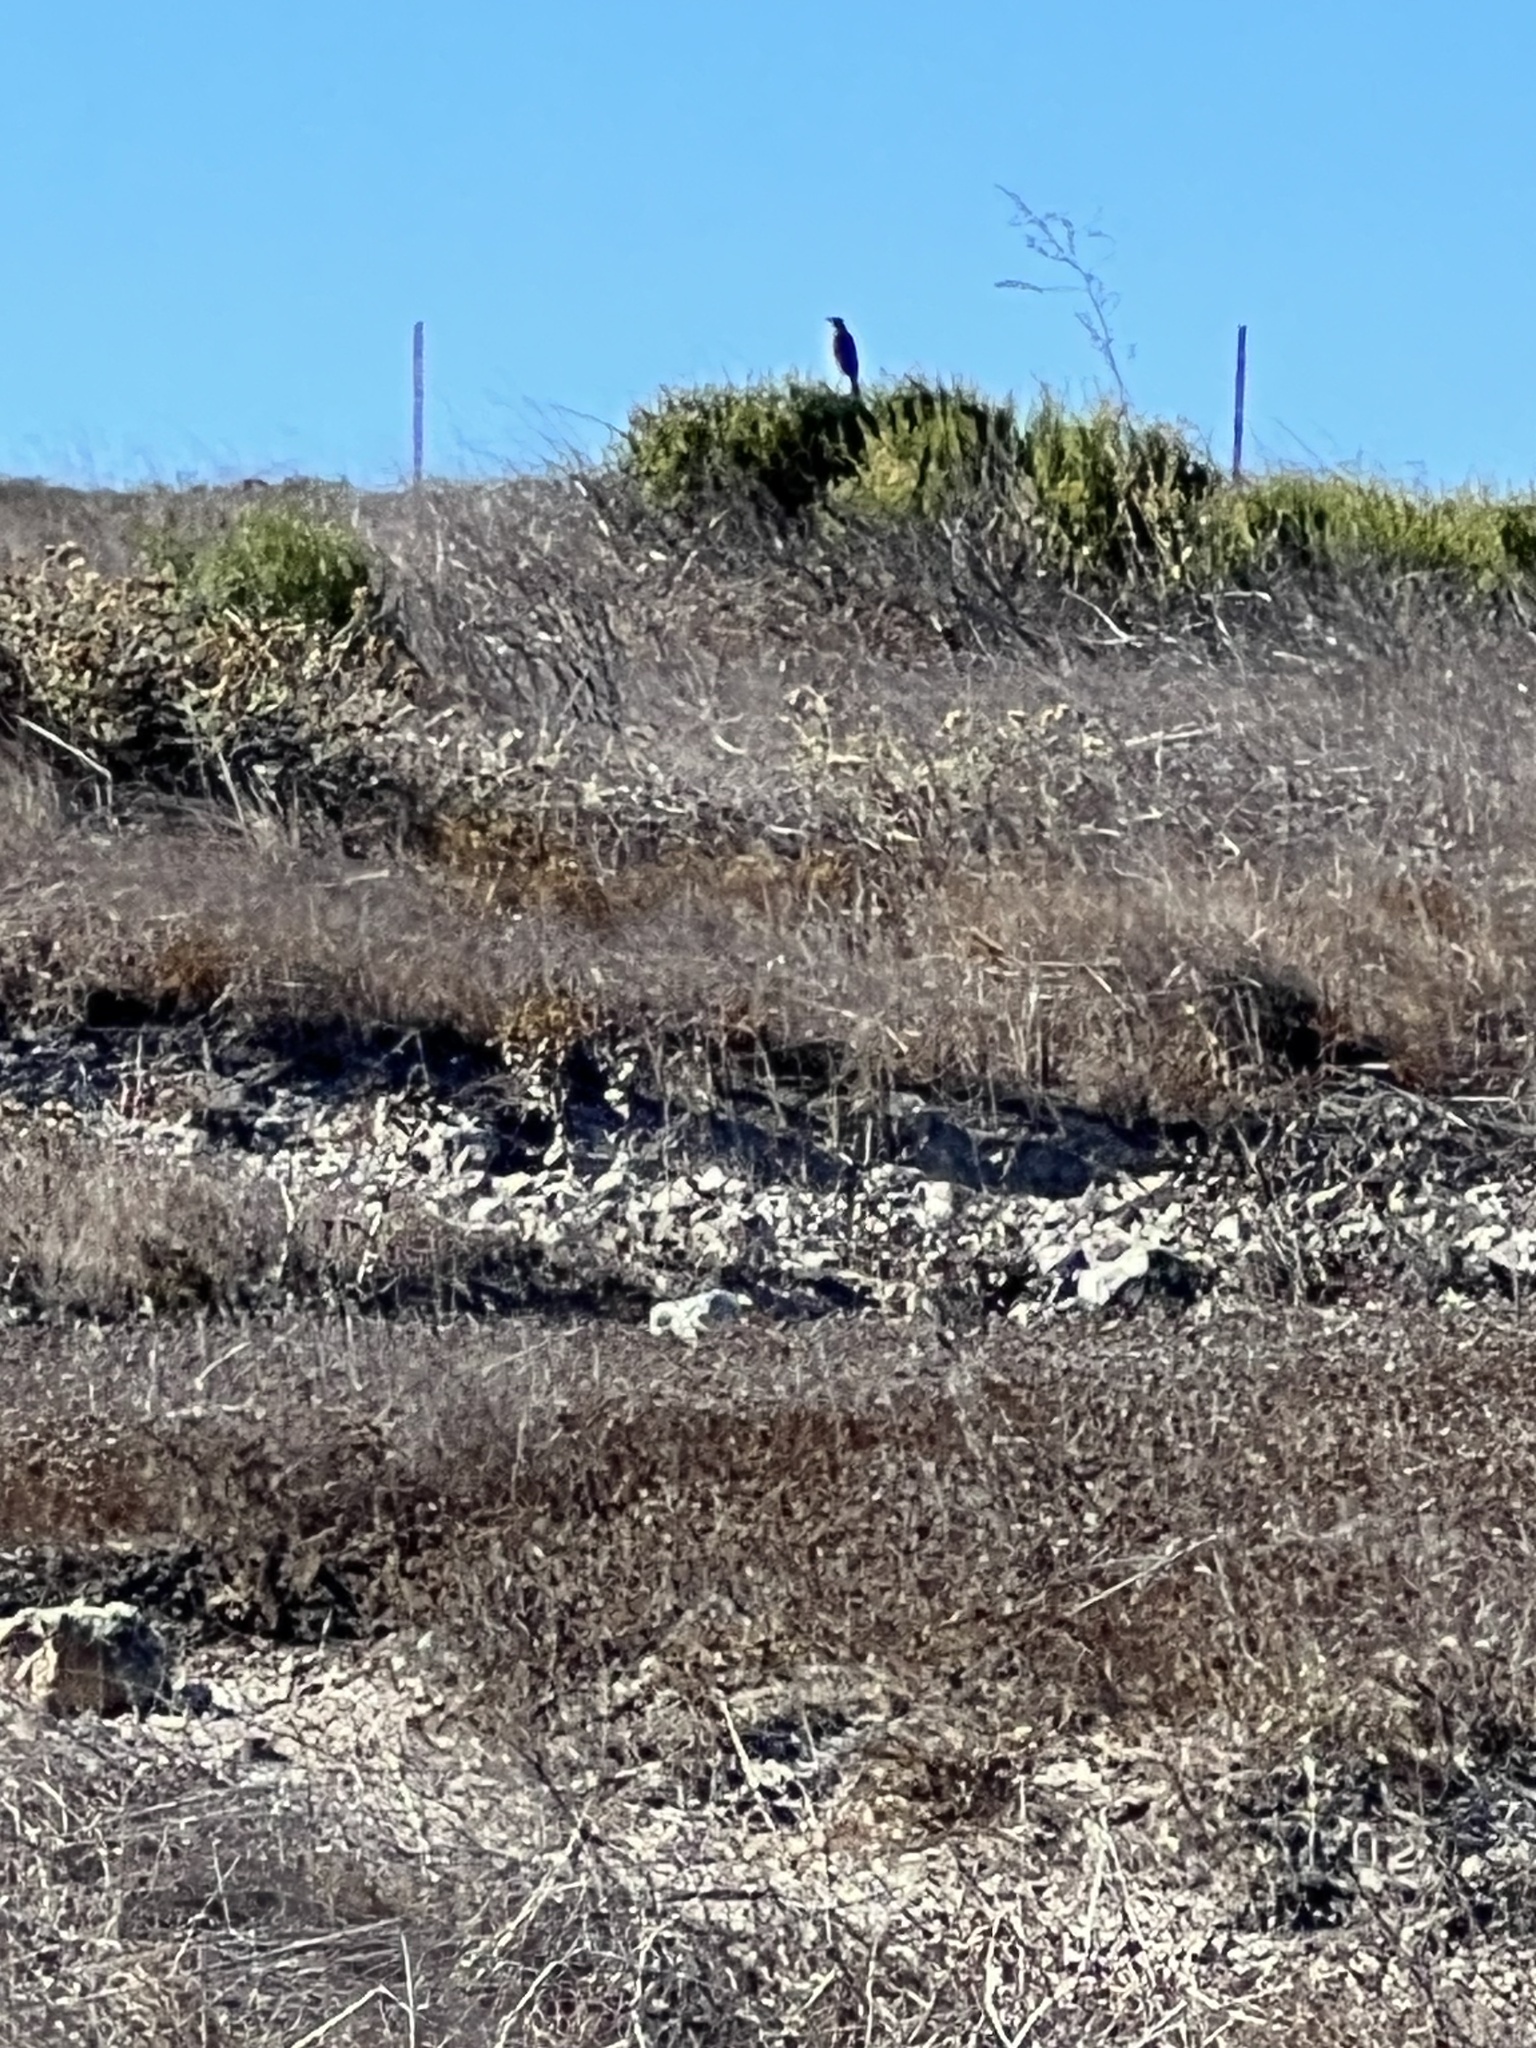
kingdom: Animalia
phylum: Chordata
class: Aves
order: Passeriformes
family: Icteridae
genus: Sturnella
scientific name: Sturnella neglecta
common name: Western meadowlark
